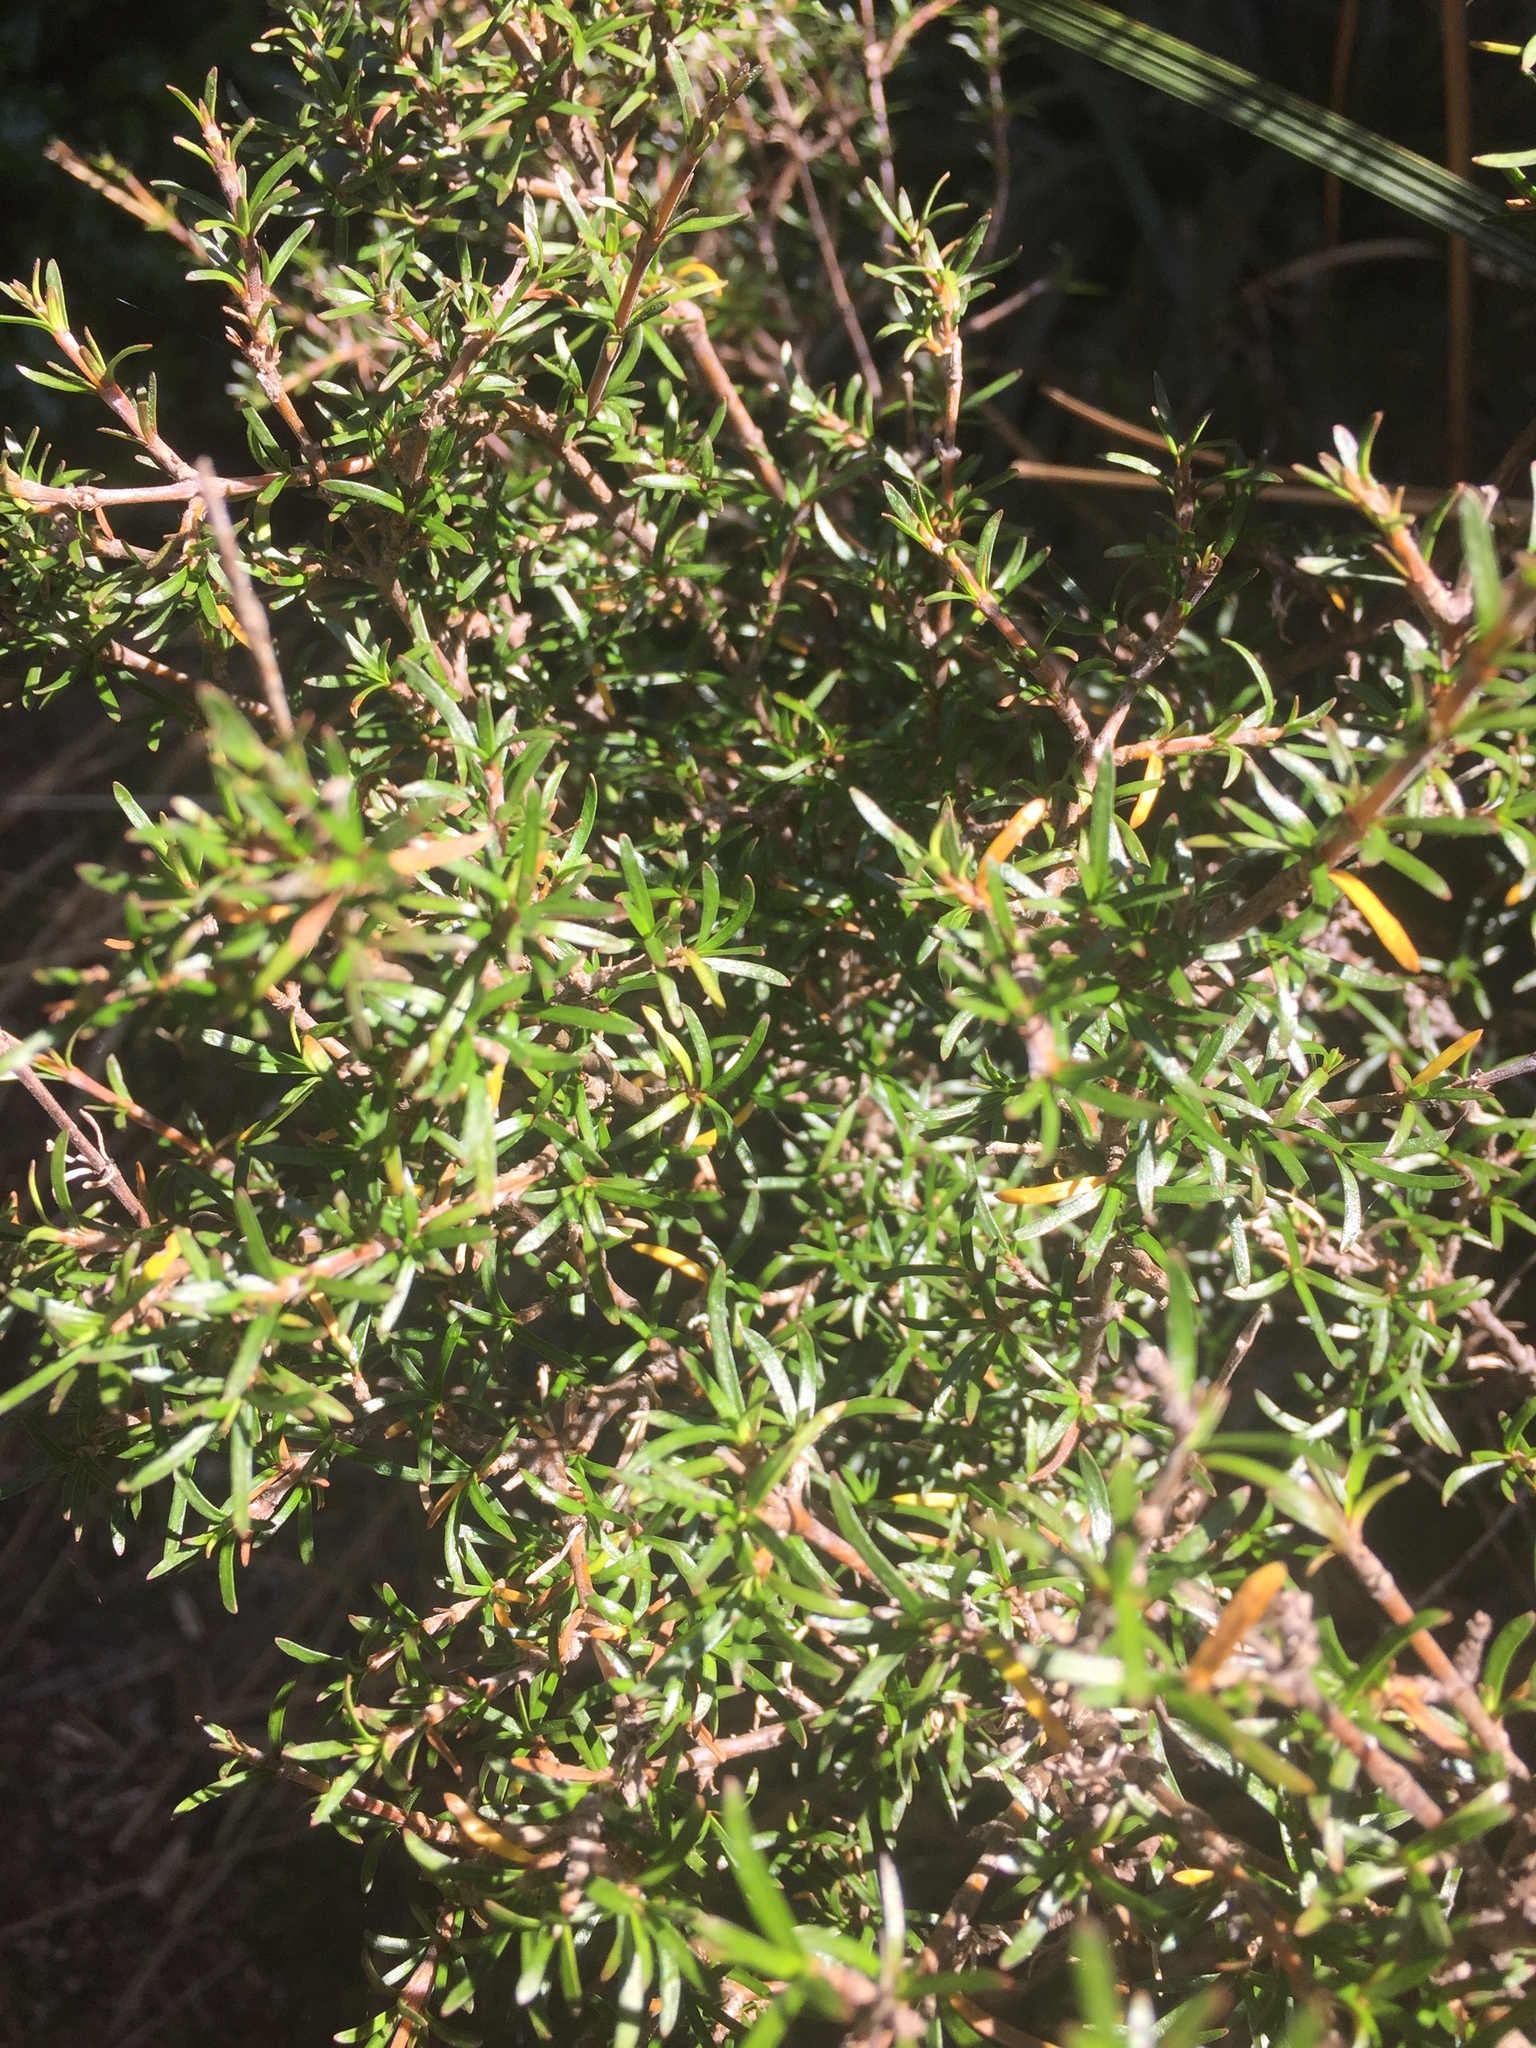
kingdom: Plantae
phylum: Tracheophyta
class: Magnoliopsida
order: Gentianales
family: Rubiaceae
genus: Coprosma
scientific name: Coprosma rugosa
